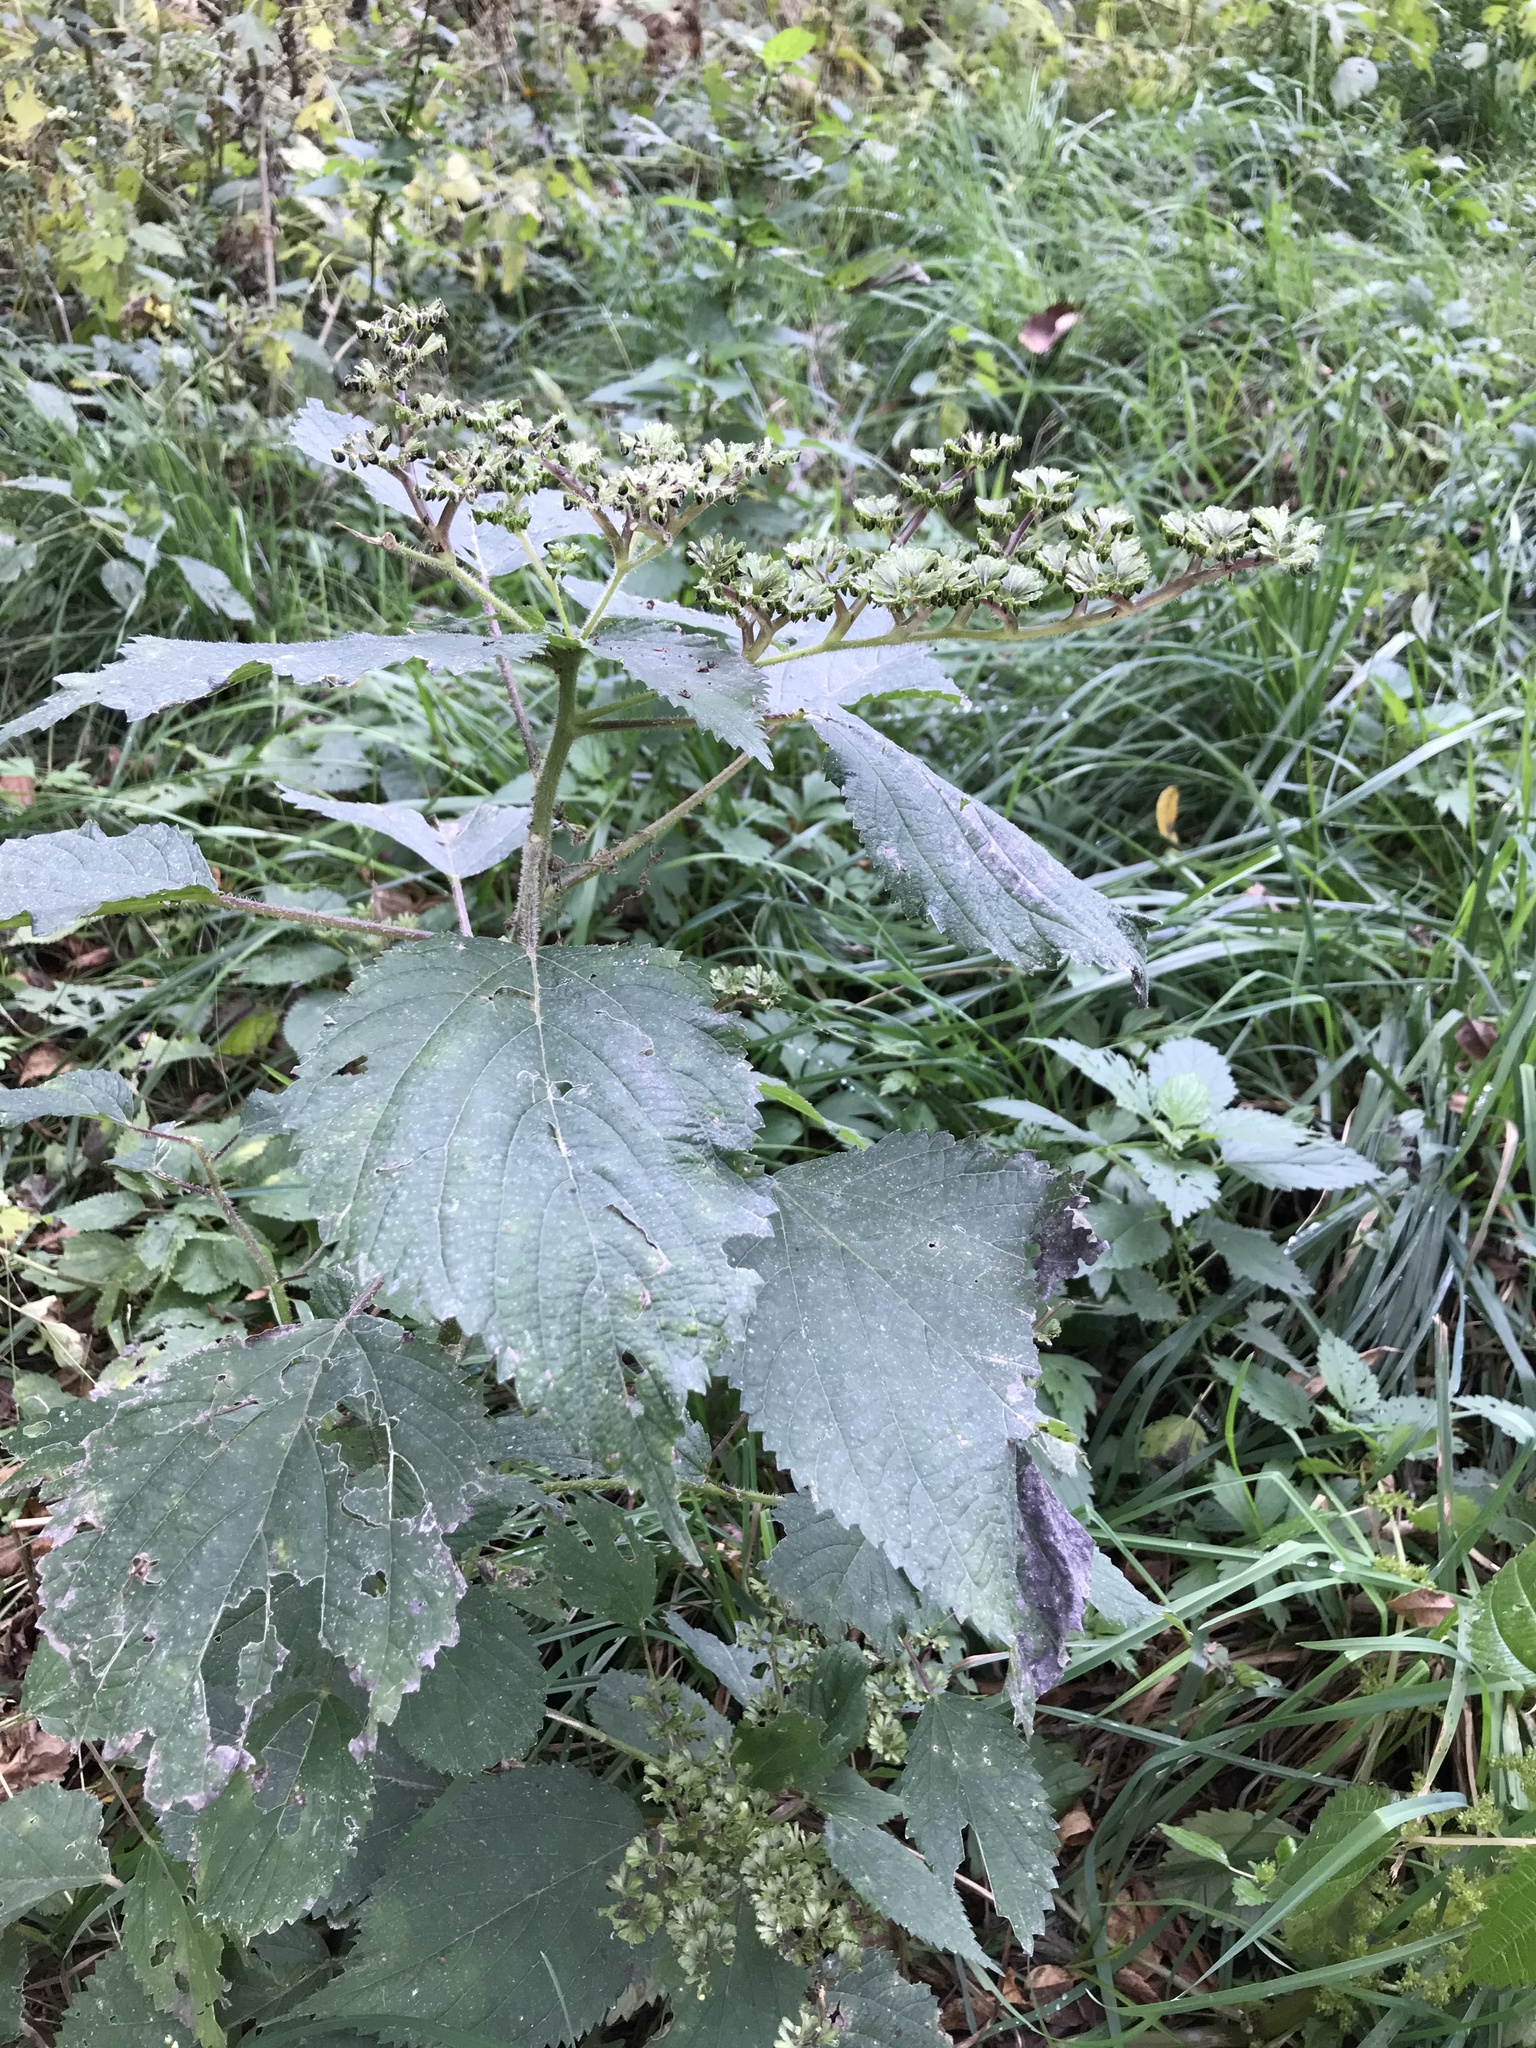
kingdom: Plantae
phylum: Tracheophyta
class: Magnoliopsida
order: Rosales
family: Urticaceae
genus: Laportea
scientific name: Laportea canadensis
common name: Canada nettle
